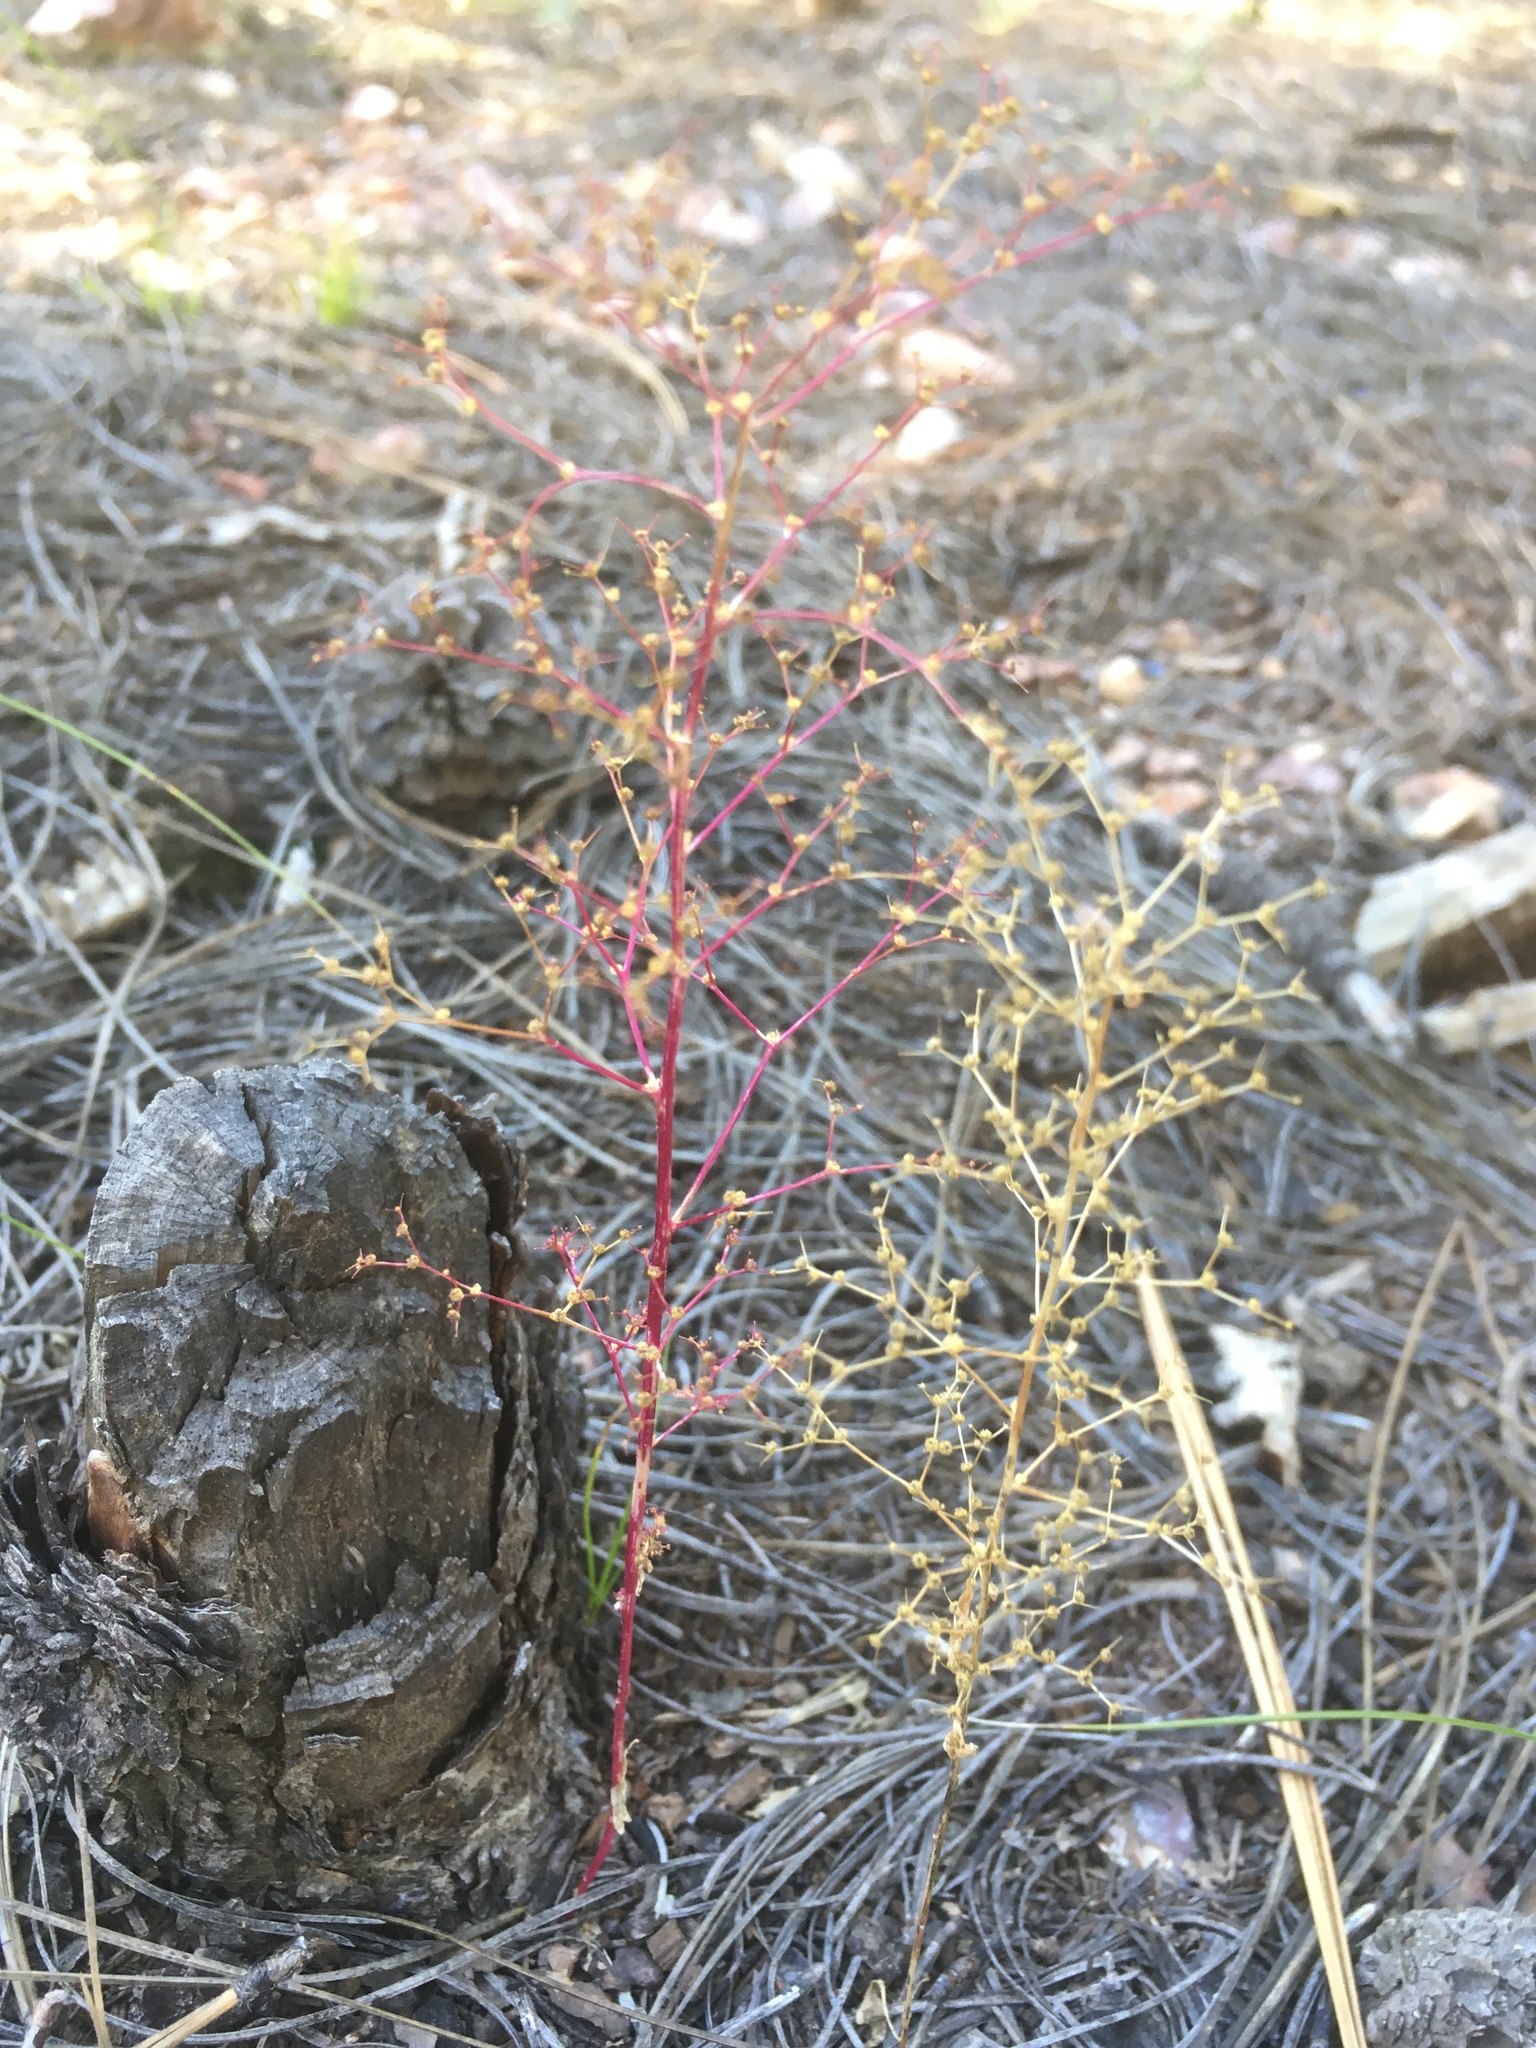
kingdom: Plantae
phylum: Tracheophyta
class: Magnoliopsida
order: Caryophyllales
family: Amaranthaceae
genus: Dysphania
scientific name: Dysphania incisa
